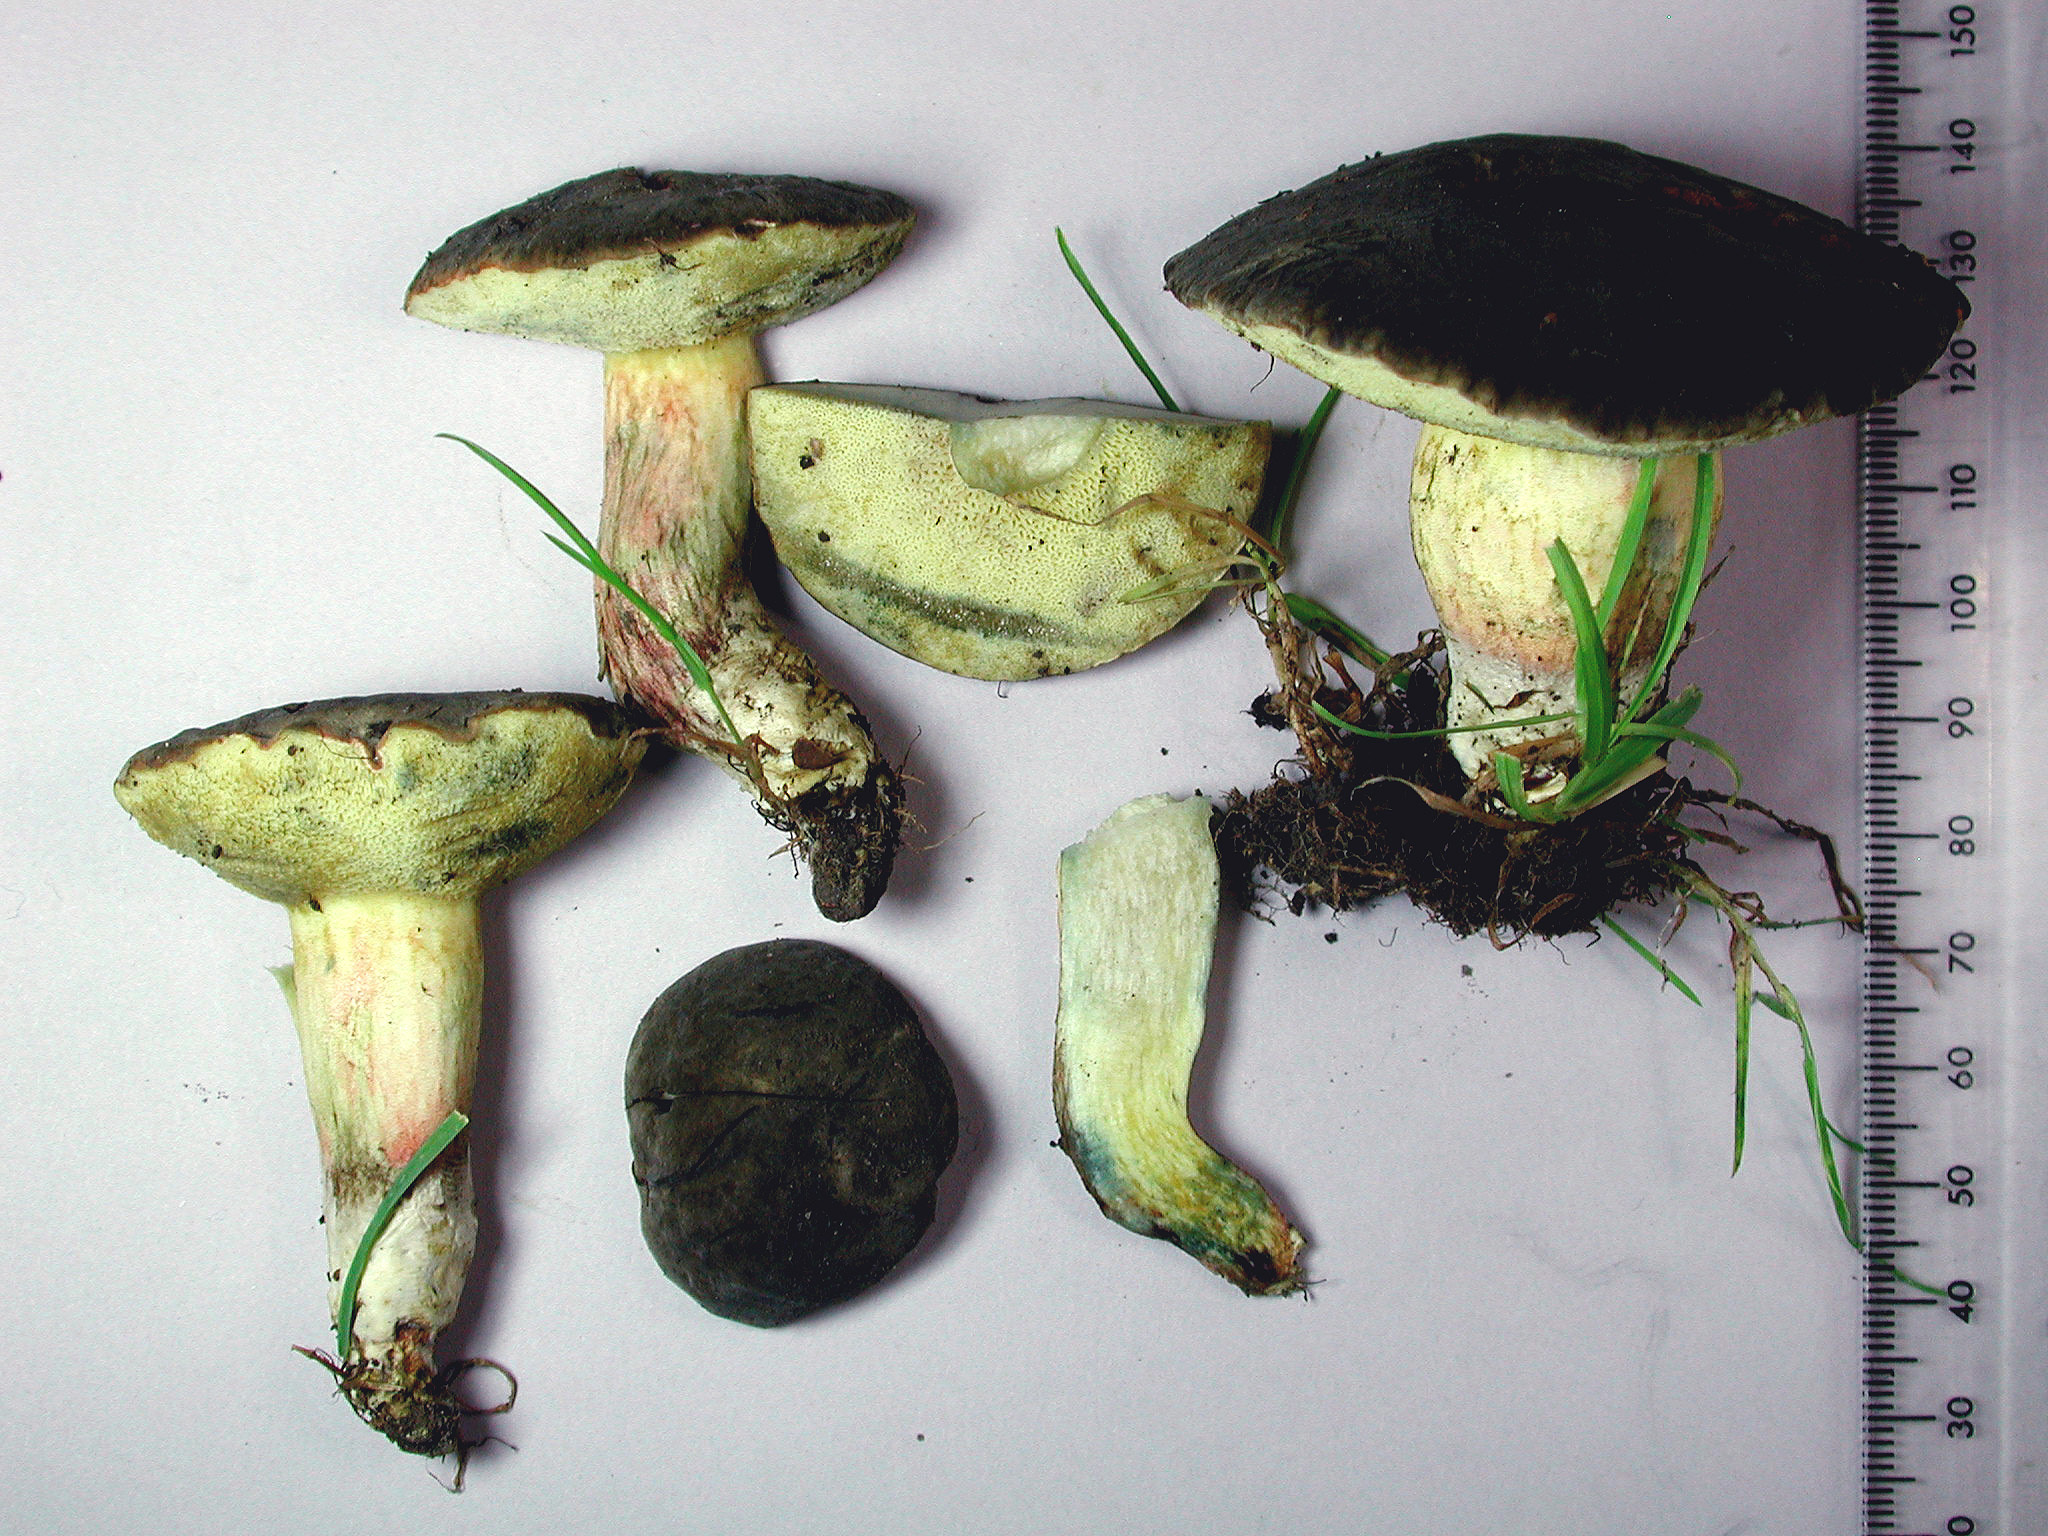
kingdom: Fungi
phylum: Basidiomycota
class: Agaricomycetes
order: Boletales
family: Boletaceae
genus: Xerocomellus
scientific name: Xerocomellus cisalpinus
